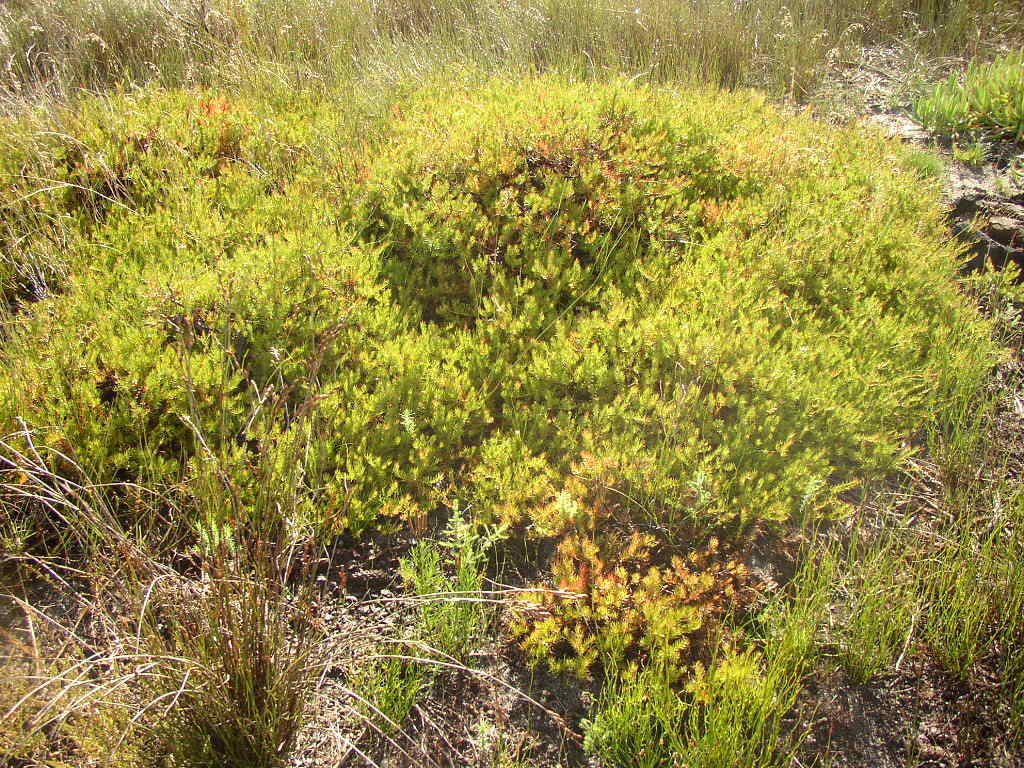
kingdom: Plantae
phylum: Tracheophyta
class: Magnoliopsida
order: Proteales
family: Proteaceae
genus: Diastella
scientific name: Diastella proteoides
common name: Flats silkypuff
